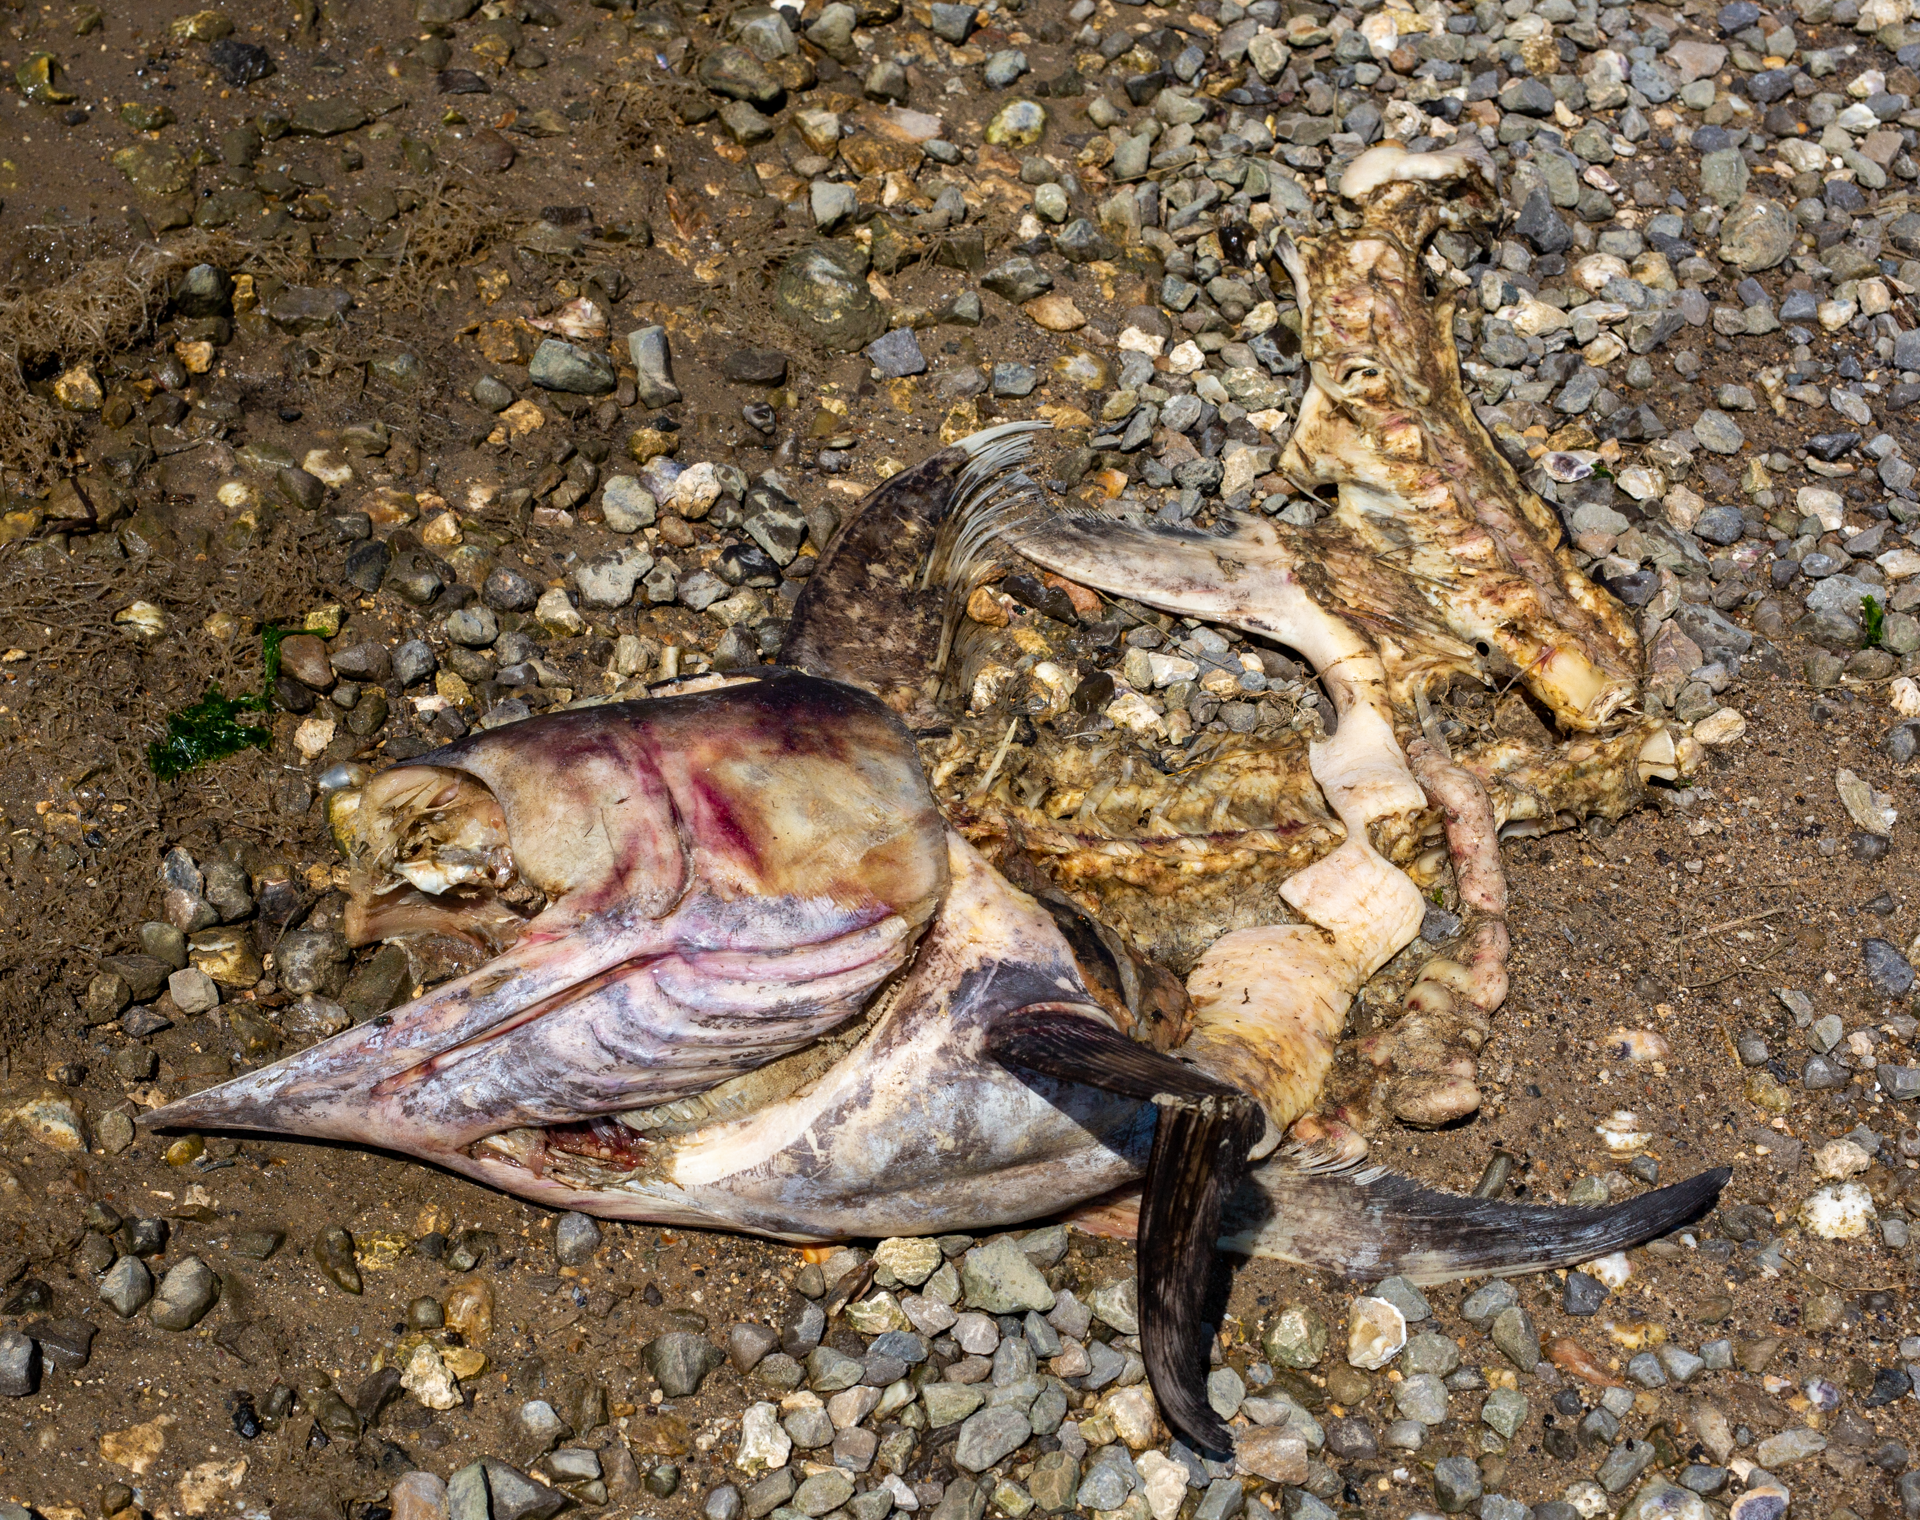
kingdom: Animalia
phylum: Chordata
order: Perciformes
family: Xiphiidae
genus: Xiphias
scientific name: Xiphias gladius
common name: Swordfish
